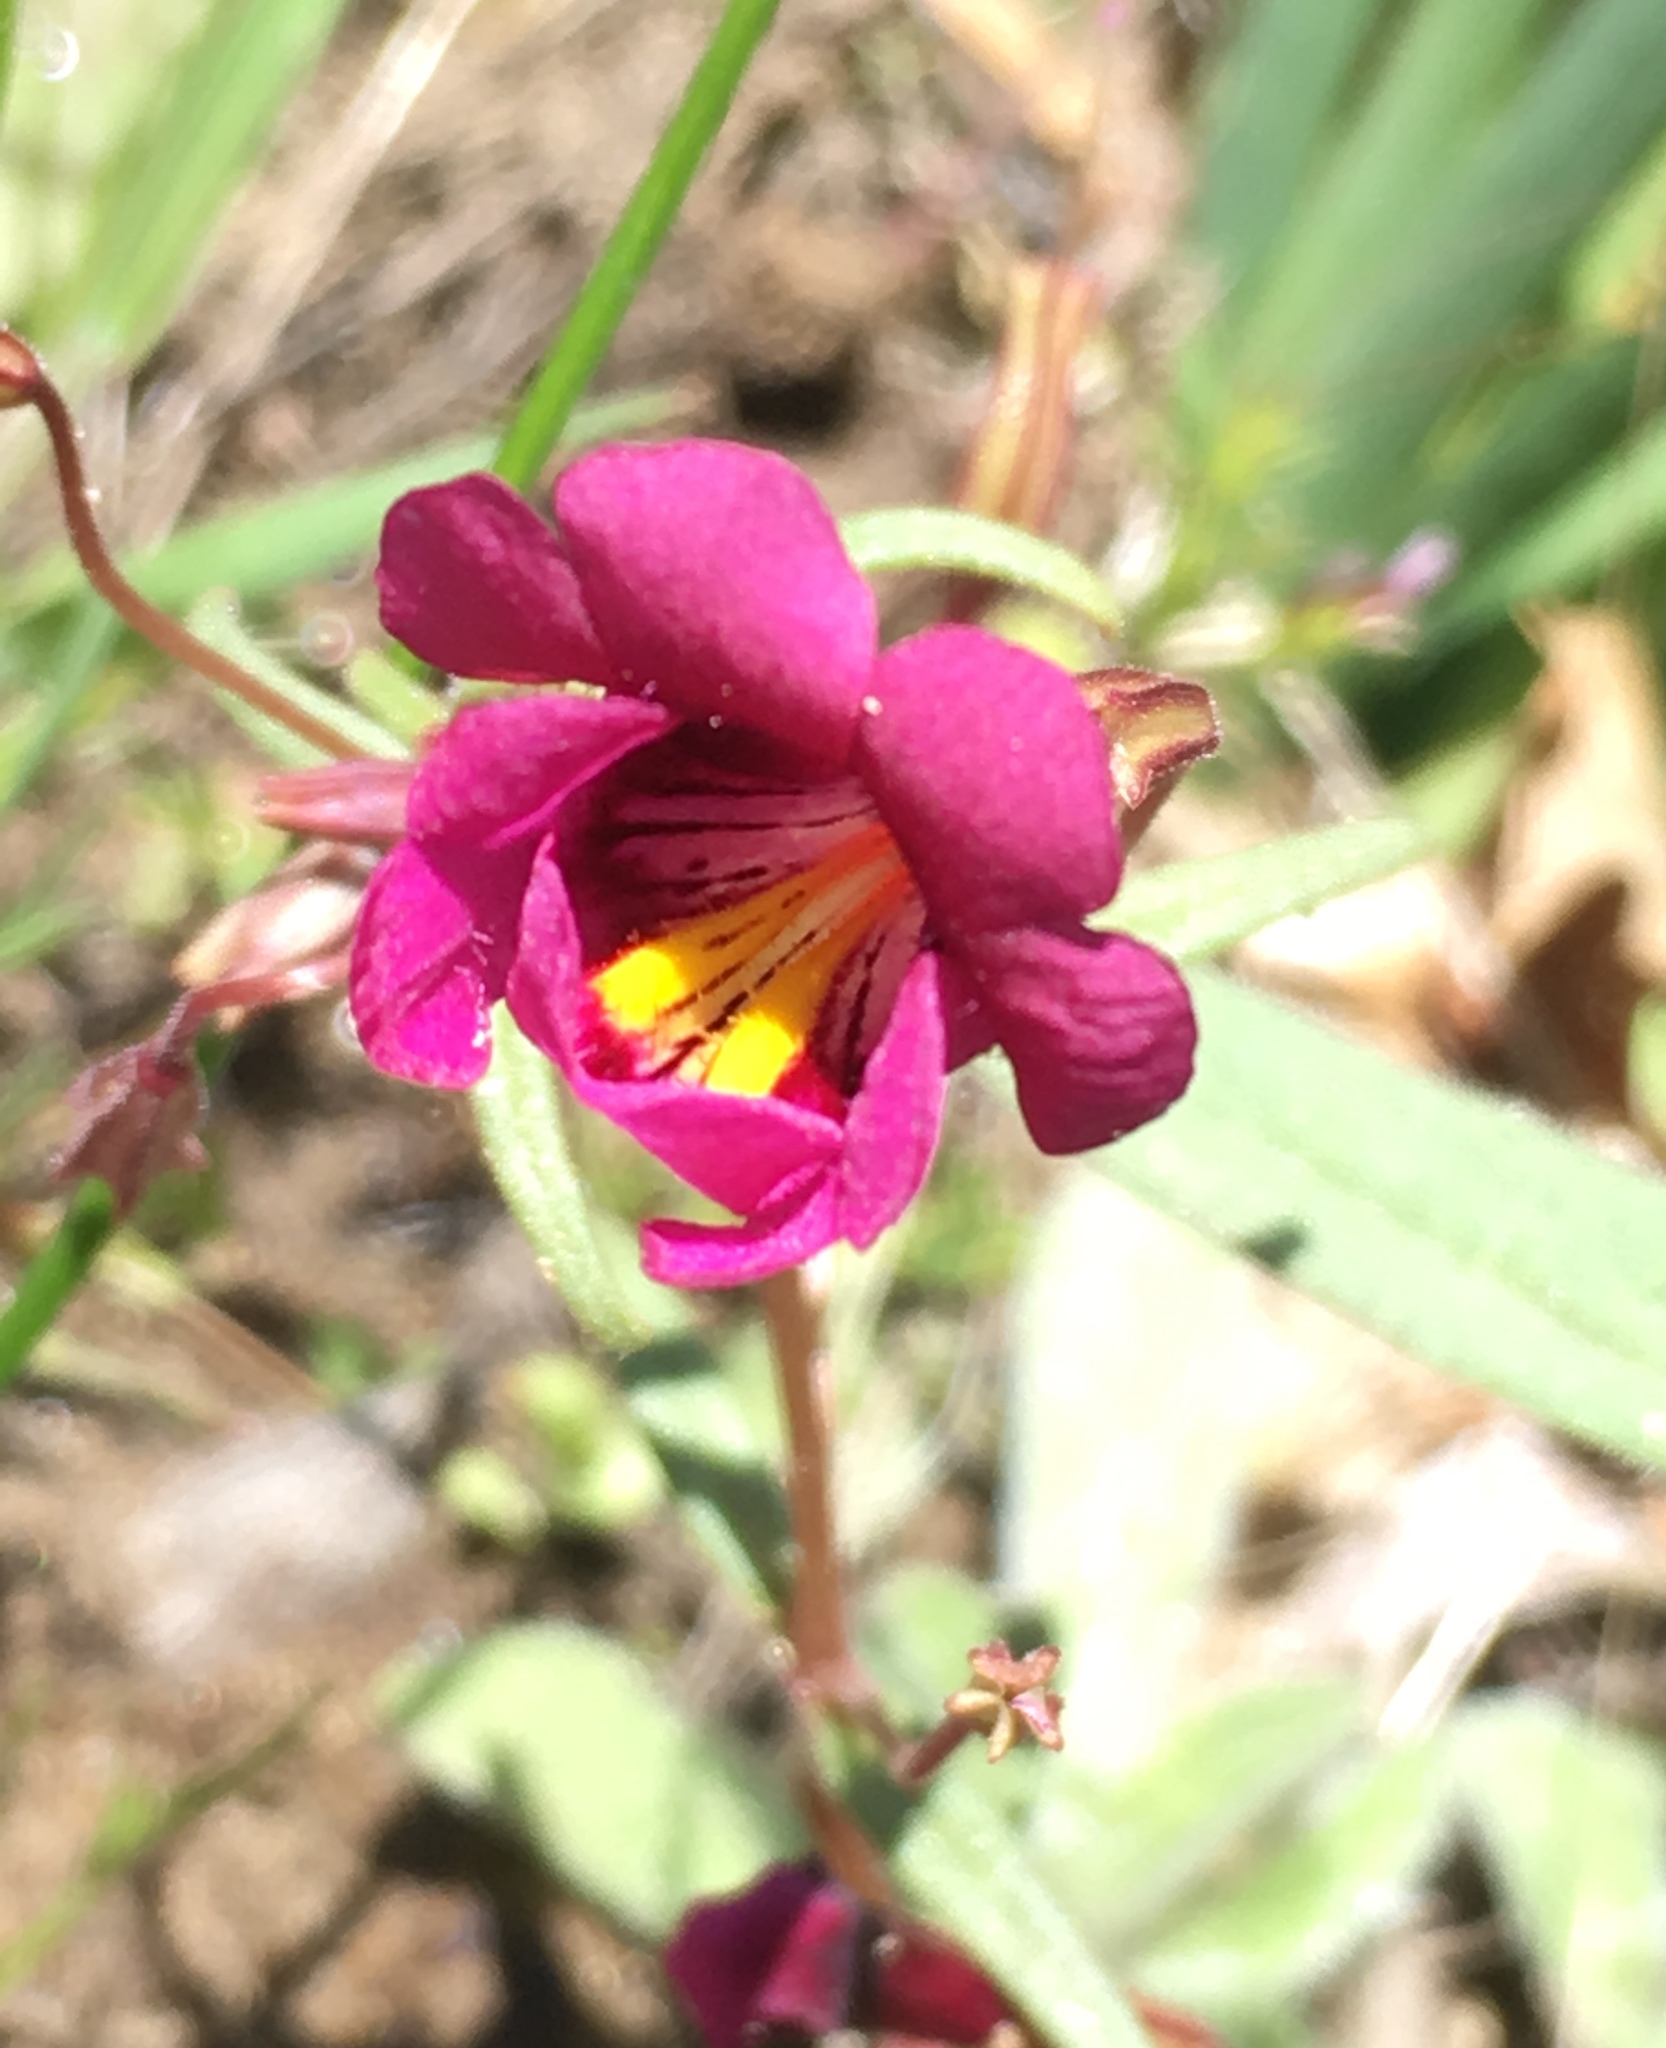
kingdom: Plantae
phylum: Tracheophyta
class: Magnoliopsida
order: Lamiales
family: Phrymaceae
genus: Erythranthe
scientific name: Erythranthe palmeri
